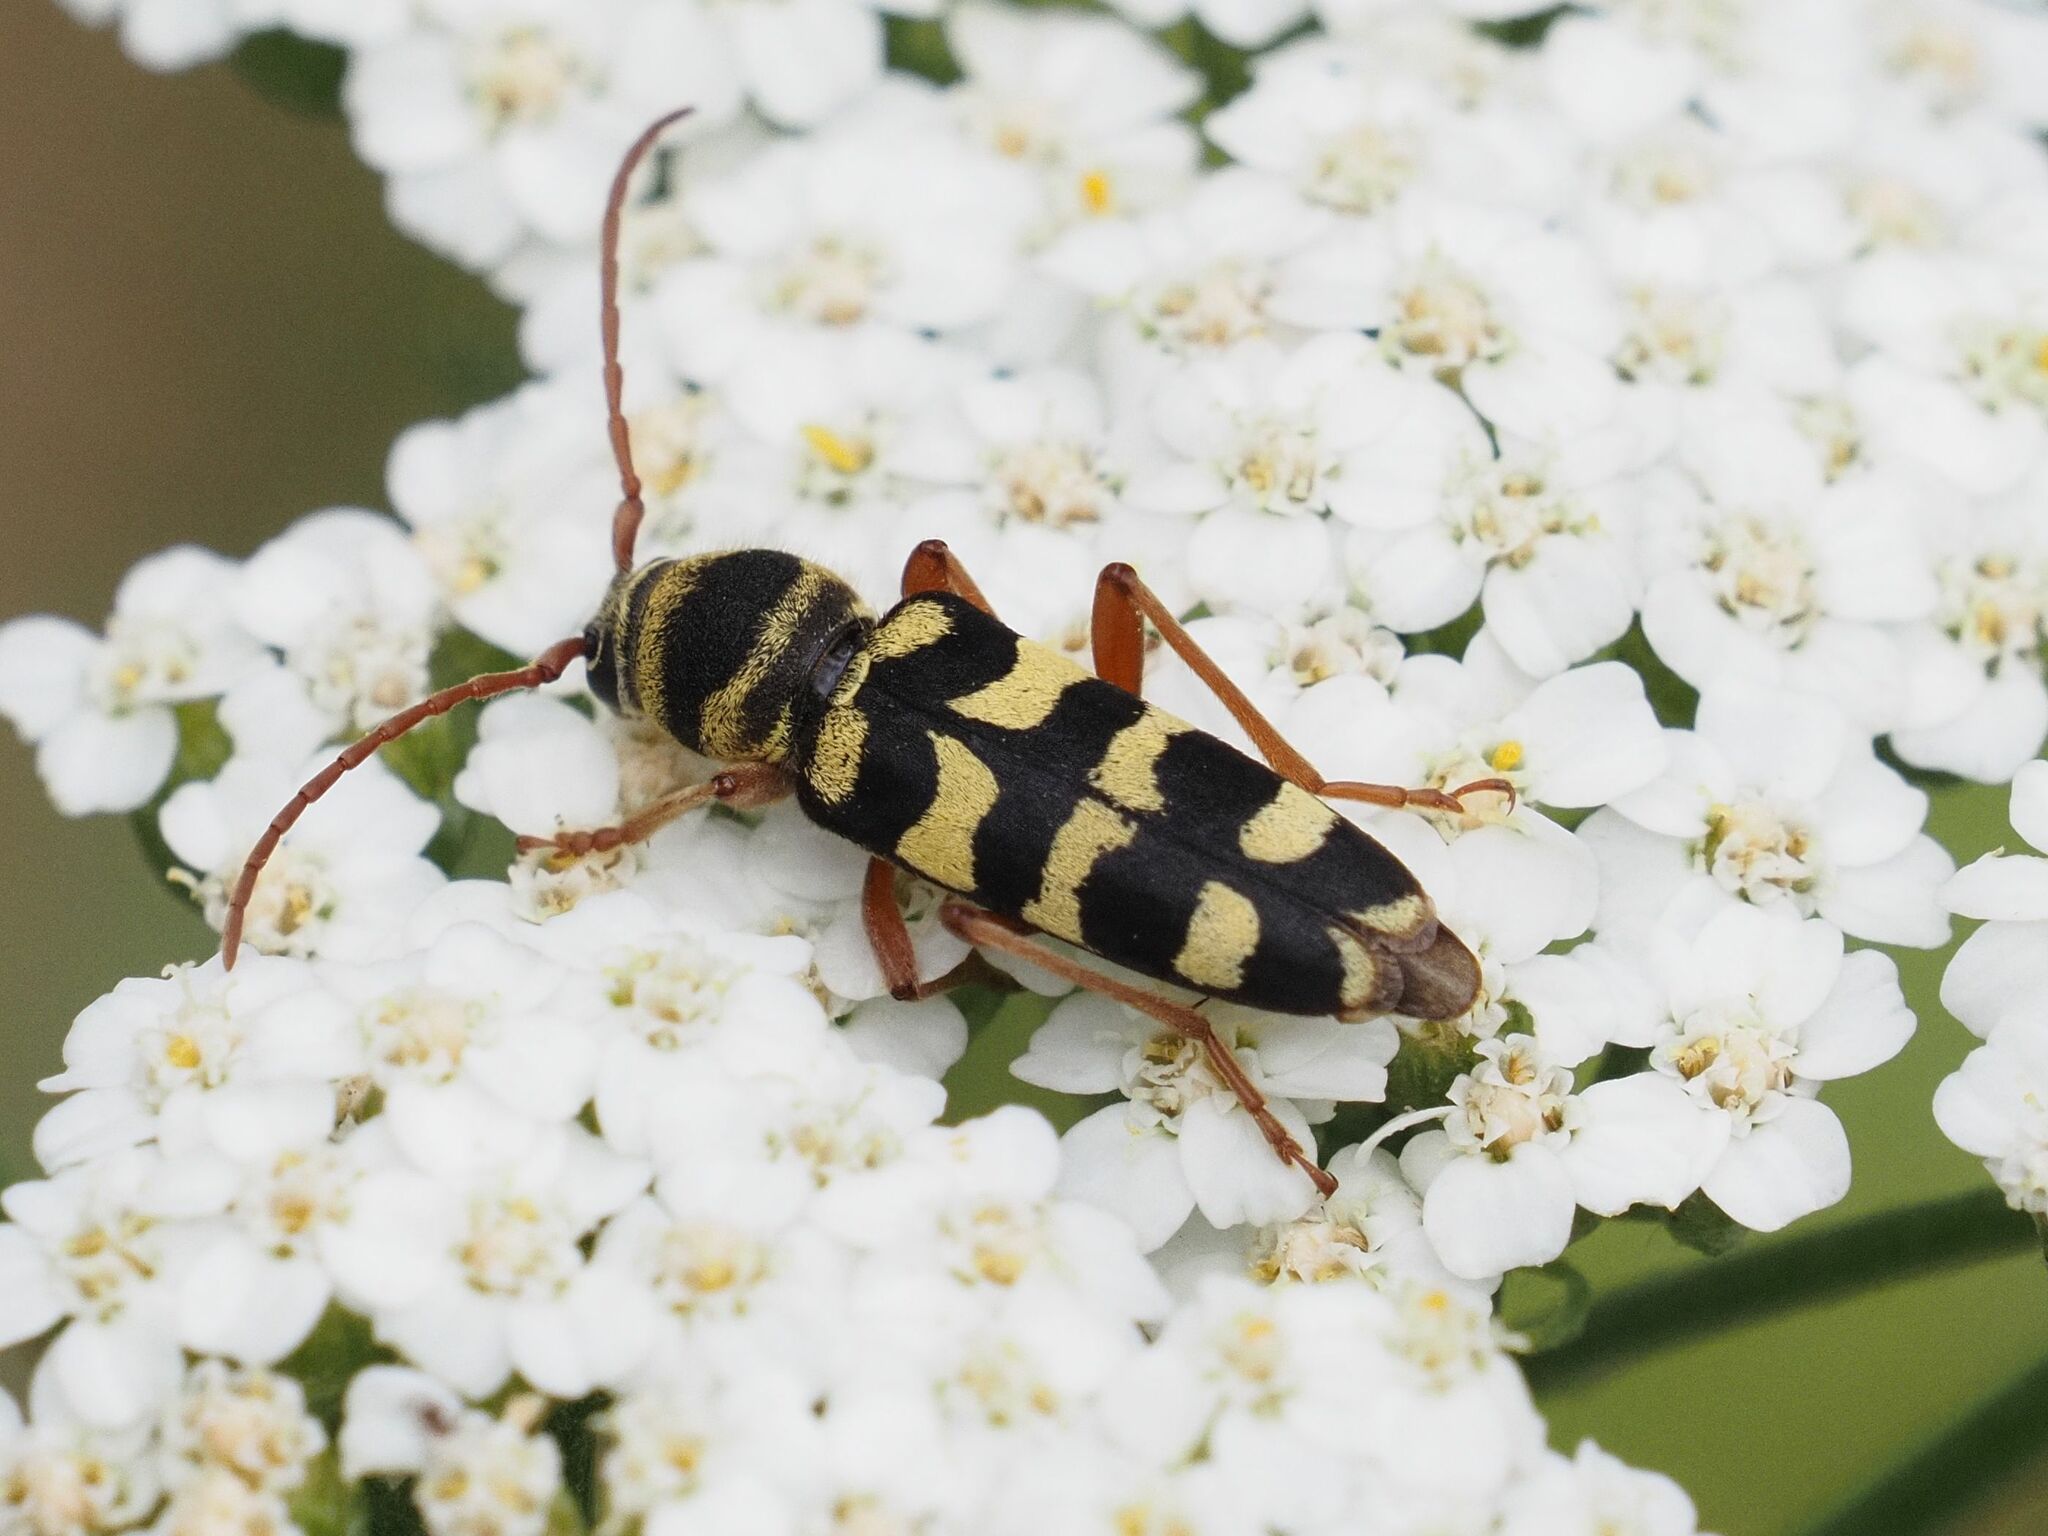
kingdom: Animalia
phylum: Arthropoda
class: Insecta
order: Coleoptera
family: Cerambycidae
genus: Plagionotus
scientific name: Plagionotus floralis
